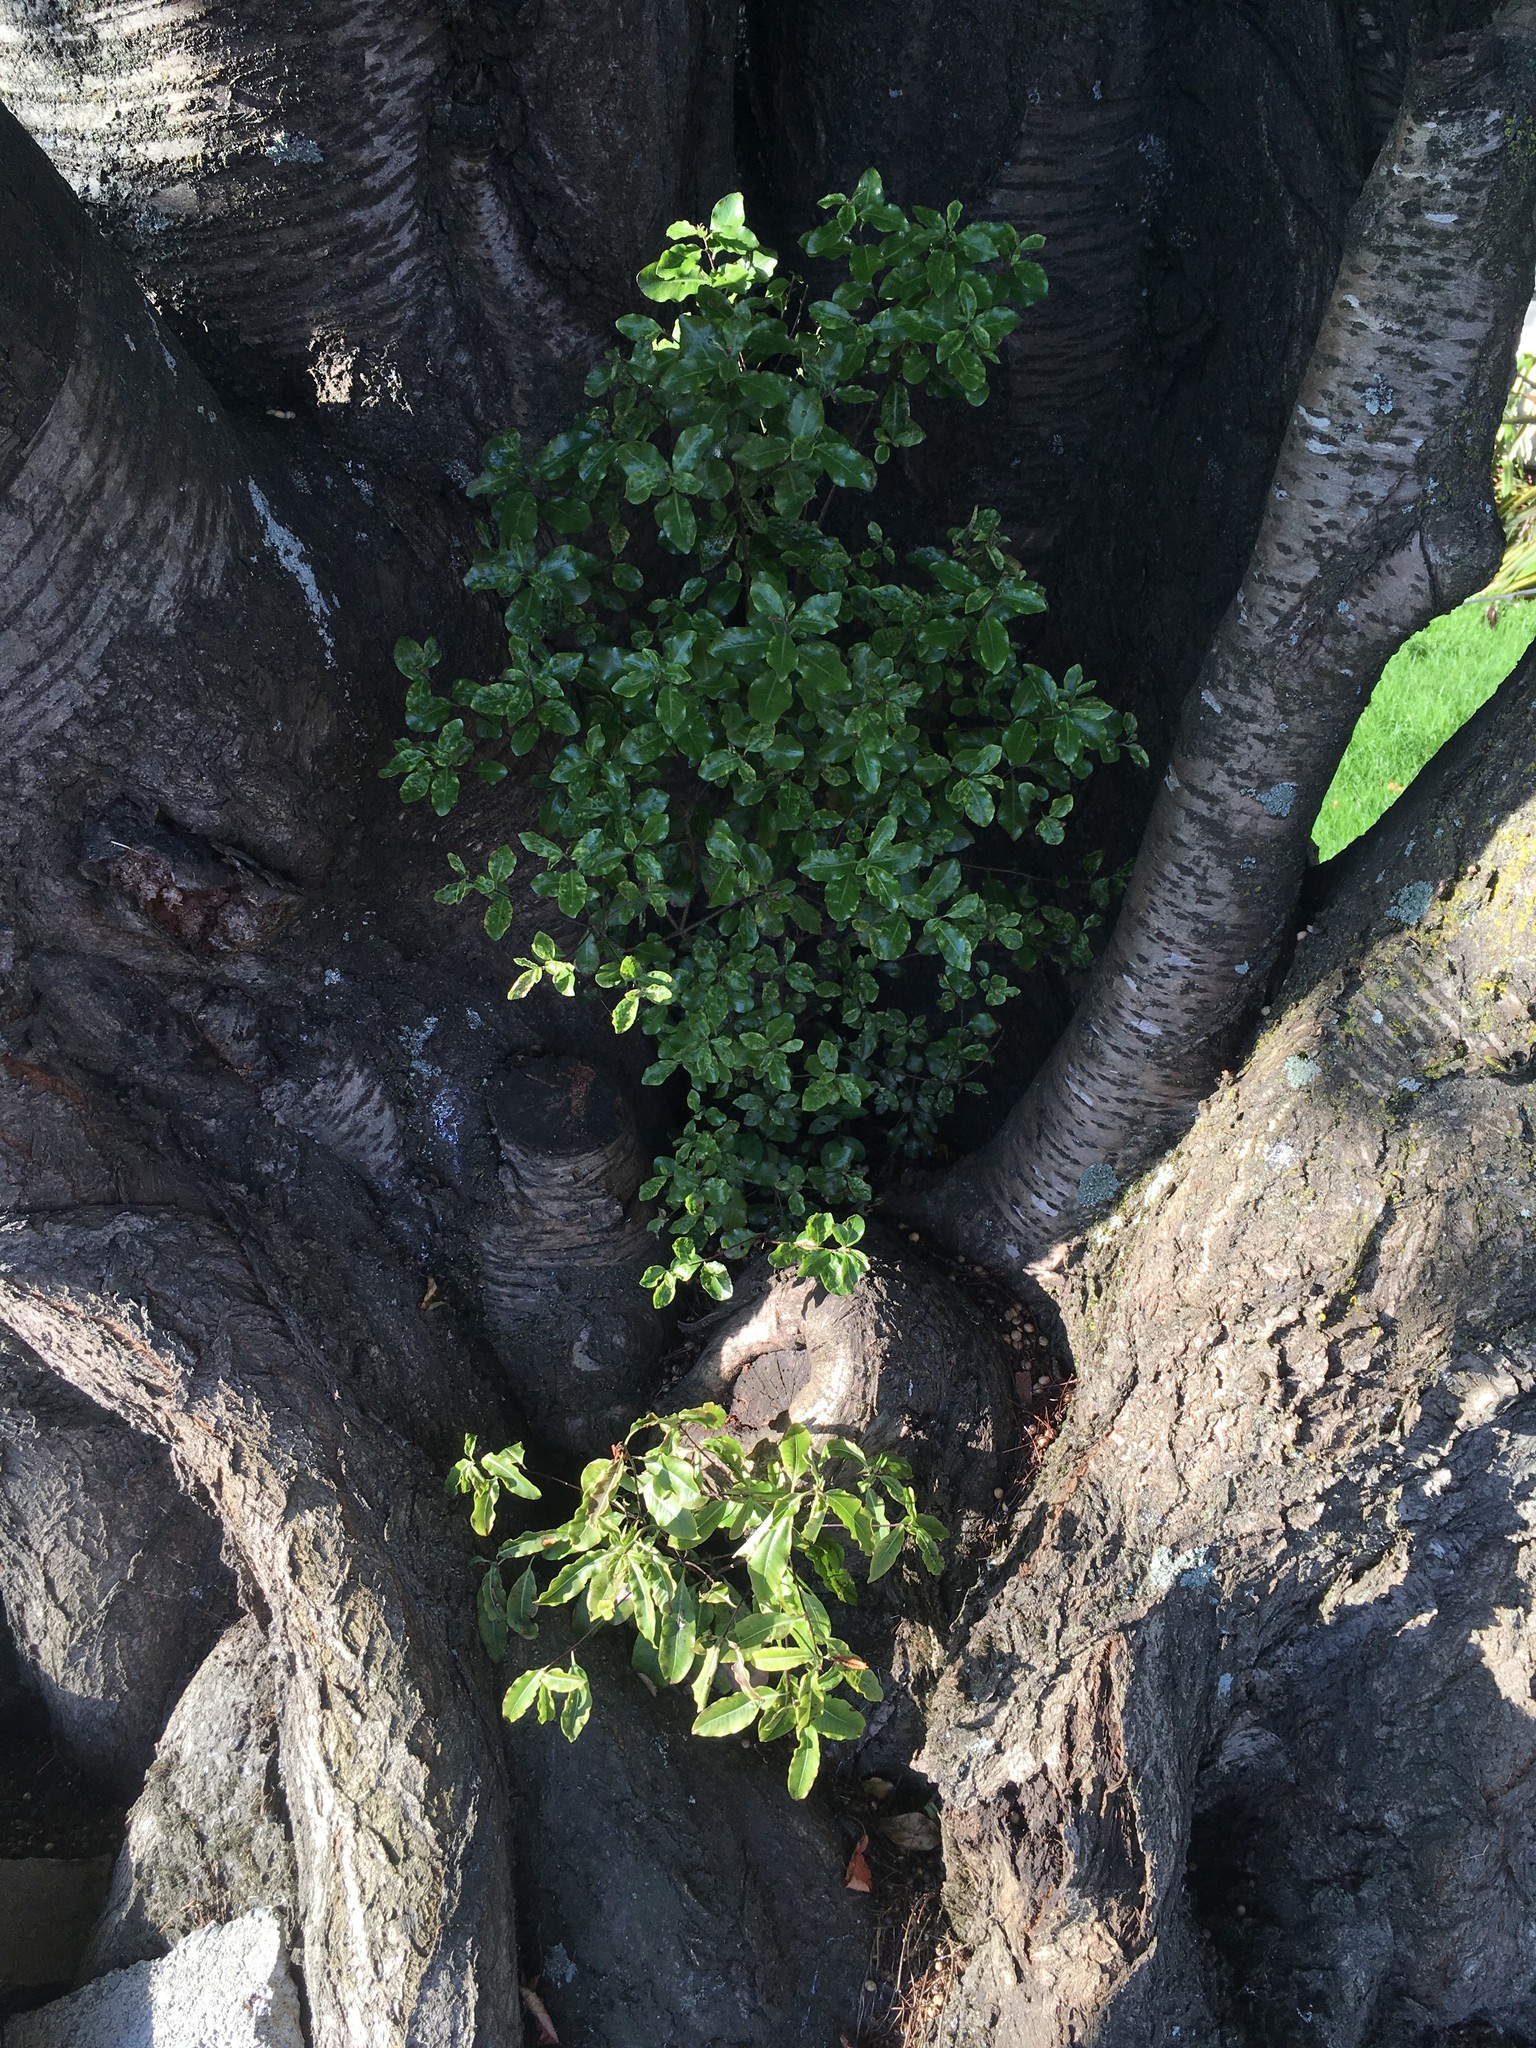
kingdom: Plantae
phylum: Tracheophyta
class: Magnoliopsida
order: Apiales
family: Pittosporaceae
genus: Pittosporum
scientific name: Pittosporum tenuifolium
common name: Kohuhu
